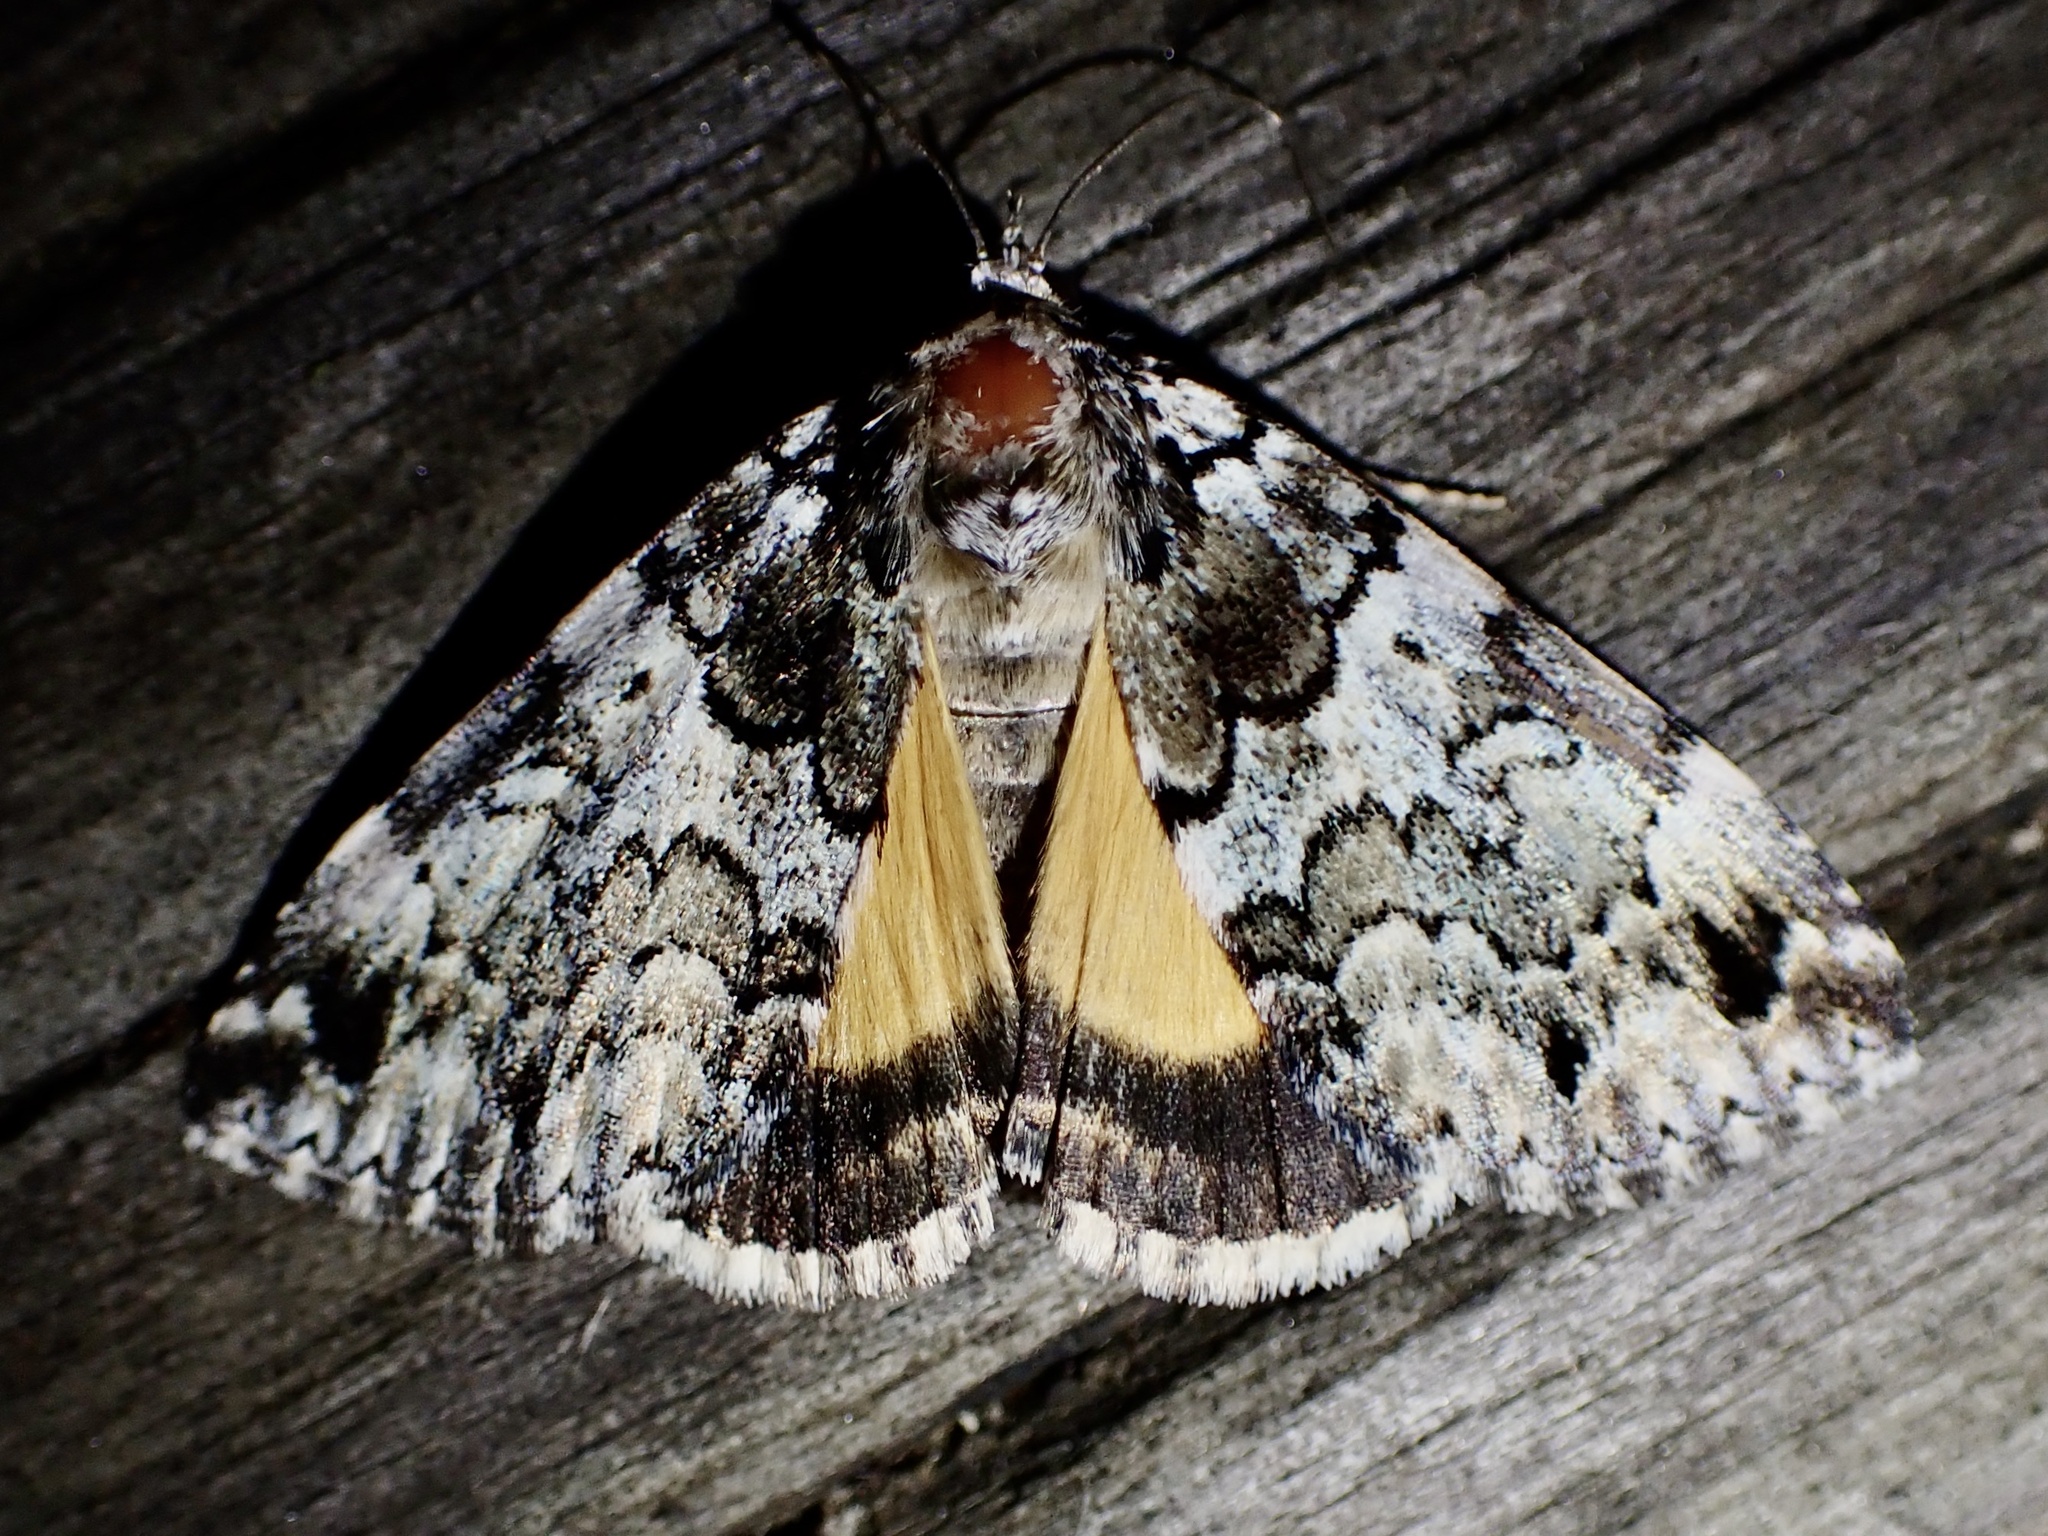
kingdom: Animalia
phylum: Arthropoda
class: Insecta
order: Lepidoptera
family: Erebidae
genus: Allotria
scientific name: Allotria elonympha
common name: False underwing
